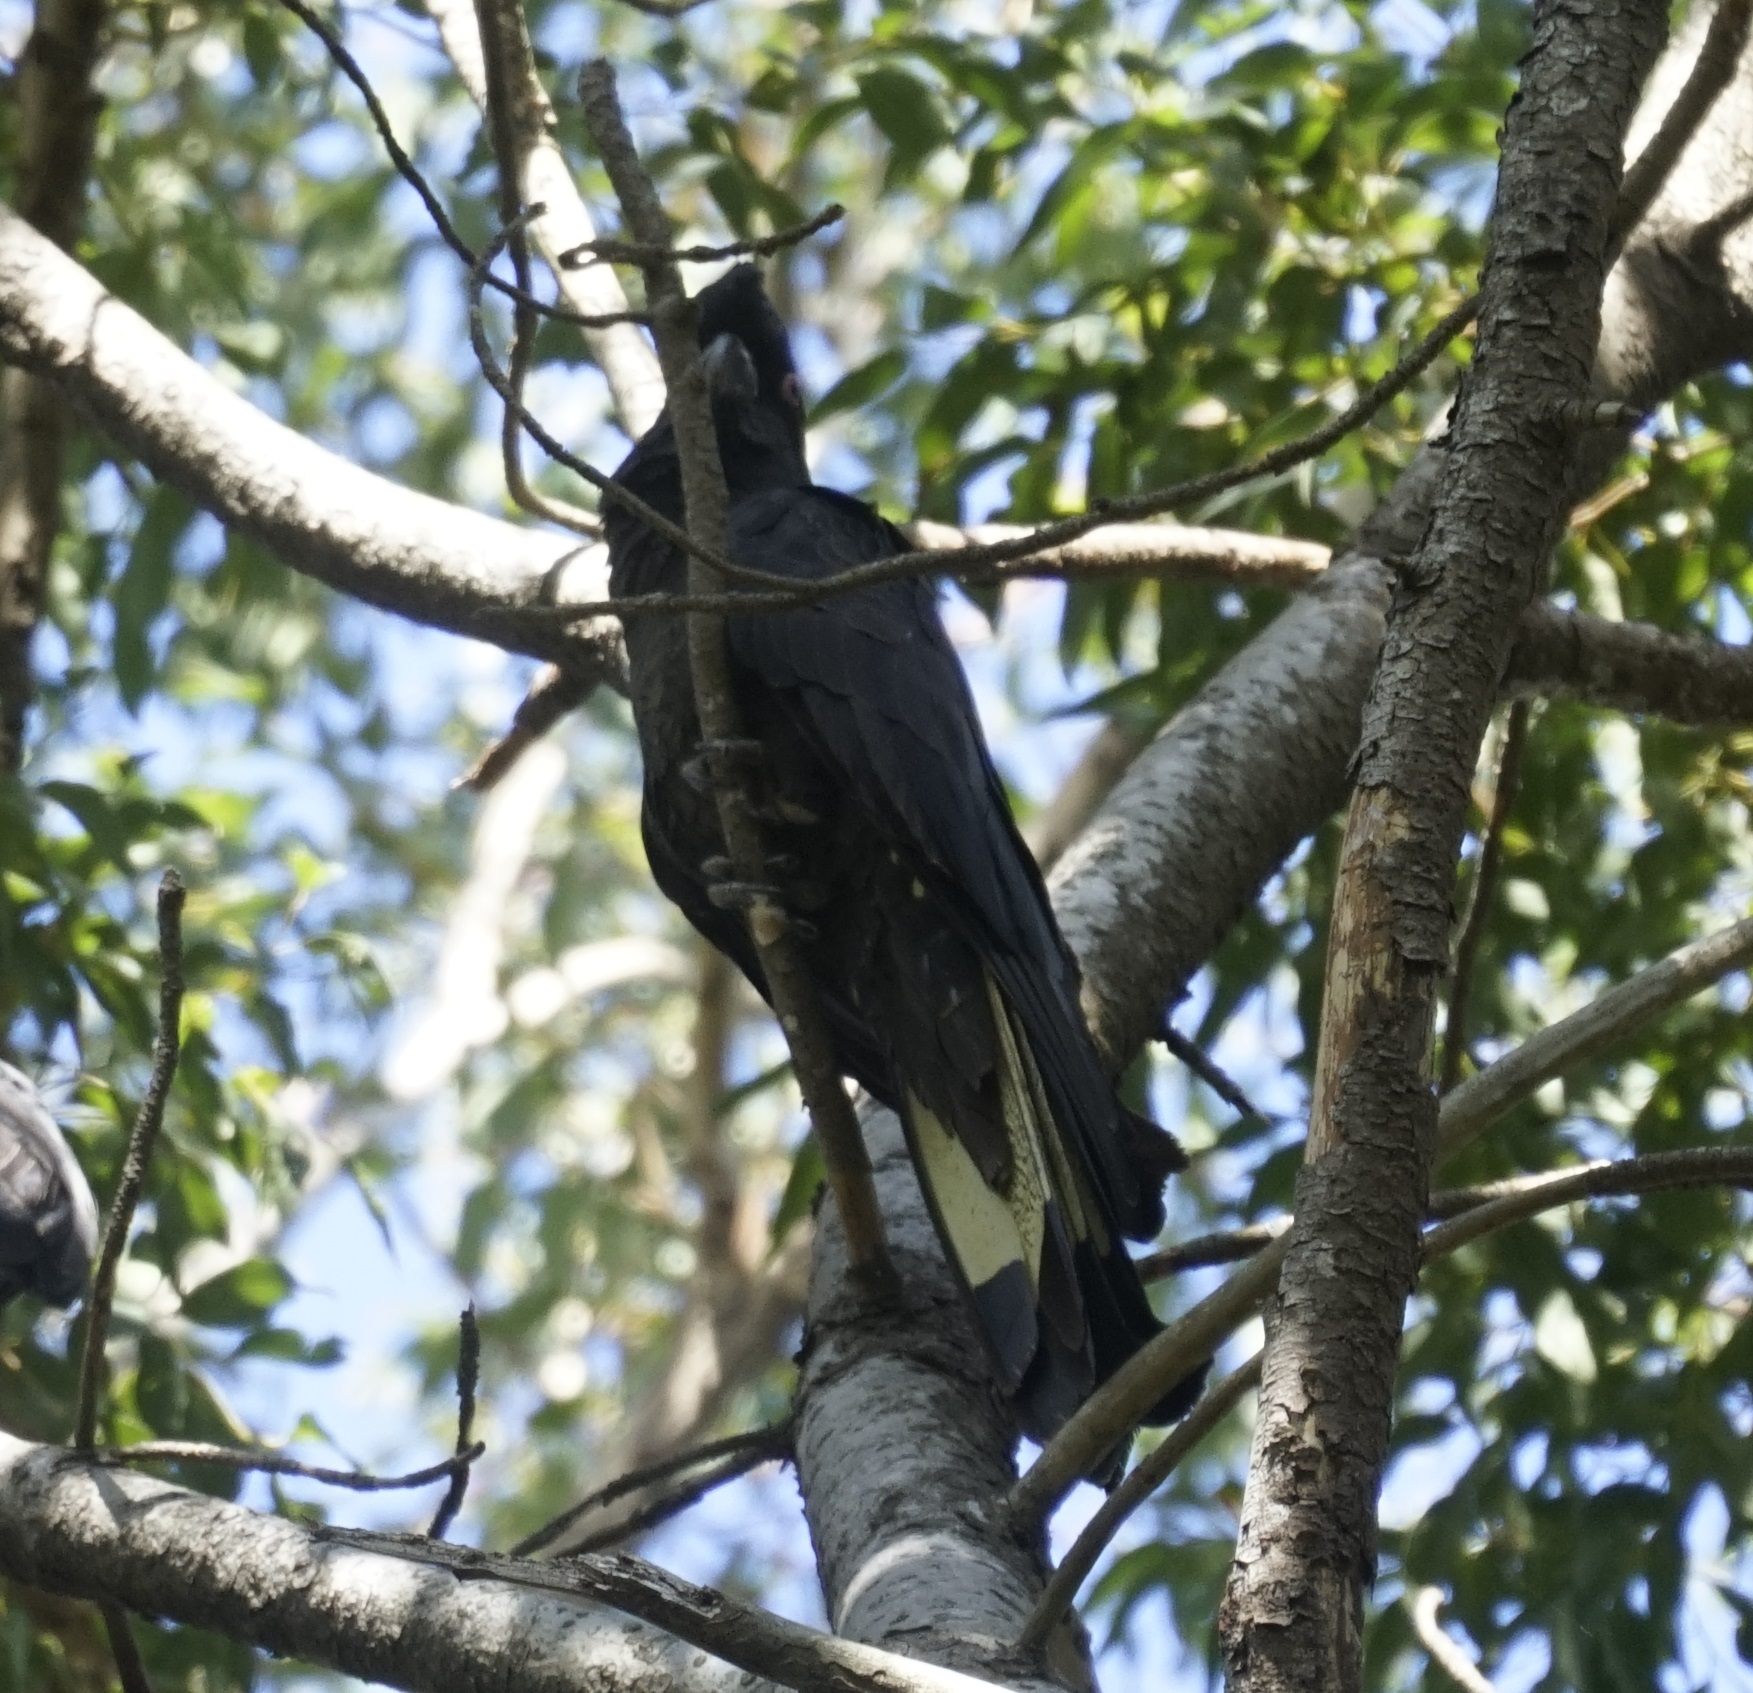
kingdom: Animalia
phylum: Chordata
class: Aves
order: Psittaciformes
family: Cacatuidae
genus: Zanda
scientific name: Zanda funerea
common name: Yellow-tailed black-cockatoo
